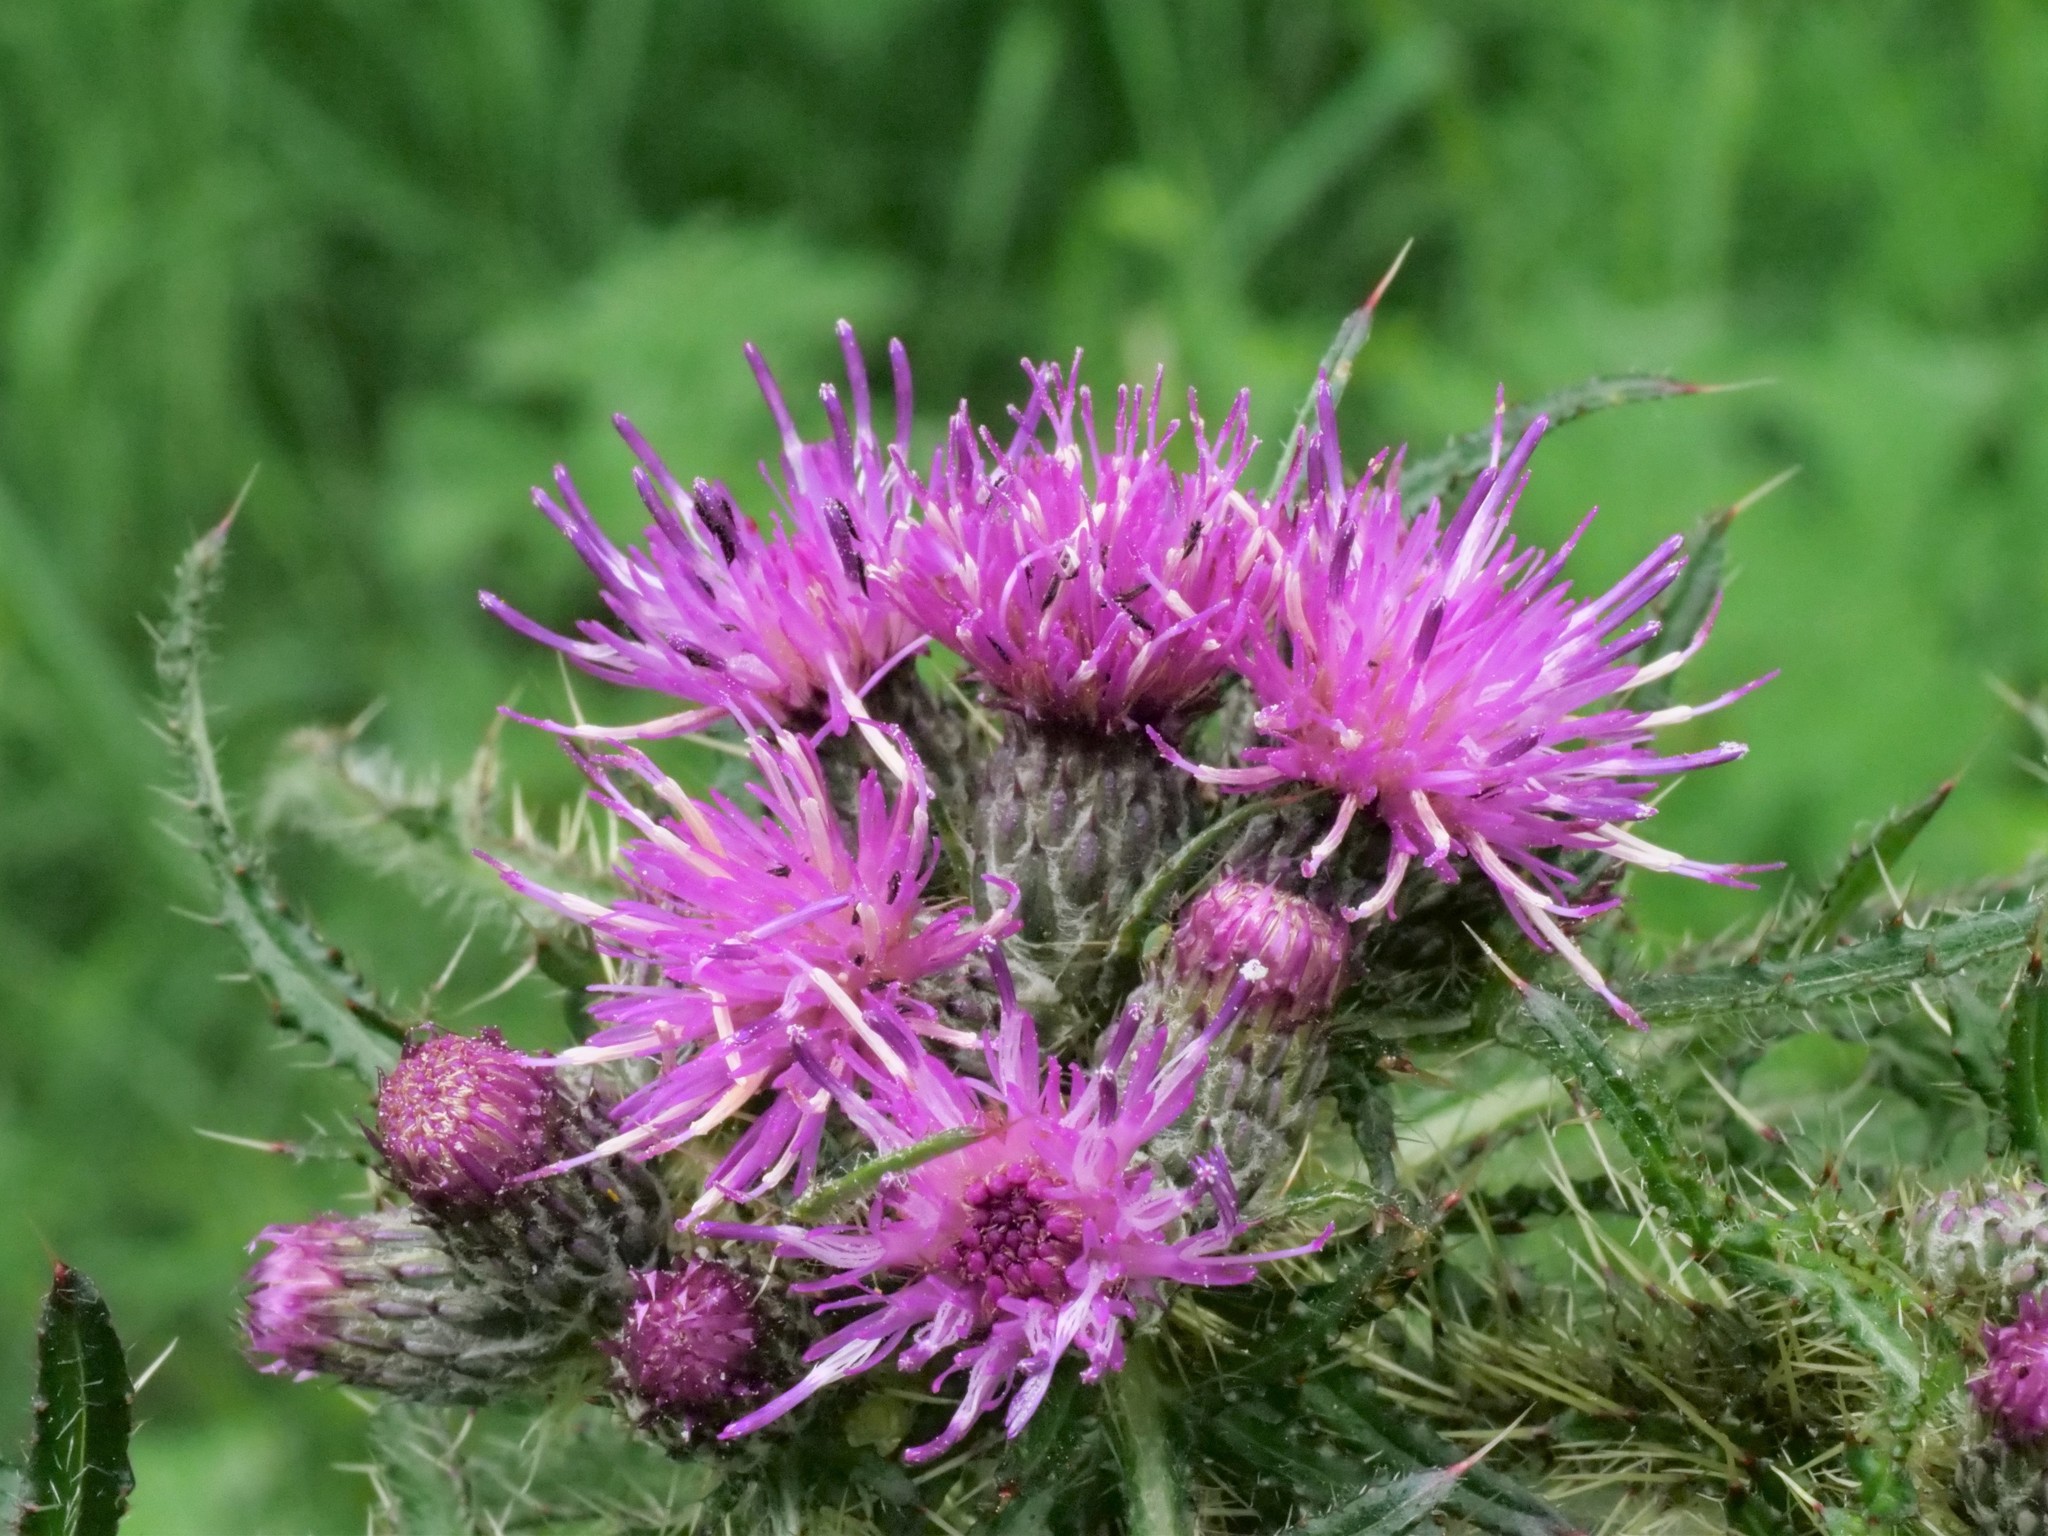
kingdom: Plantae
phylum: Tracheophyta
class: Magnoliopsida
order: Asterales
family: Asteraceae
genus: Cirsium
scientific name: Cirsium palustre
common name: Marsh thistle
